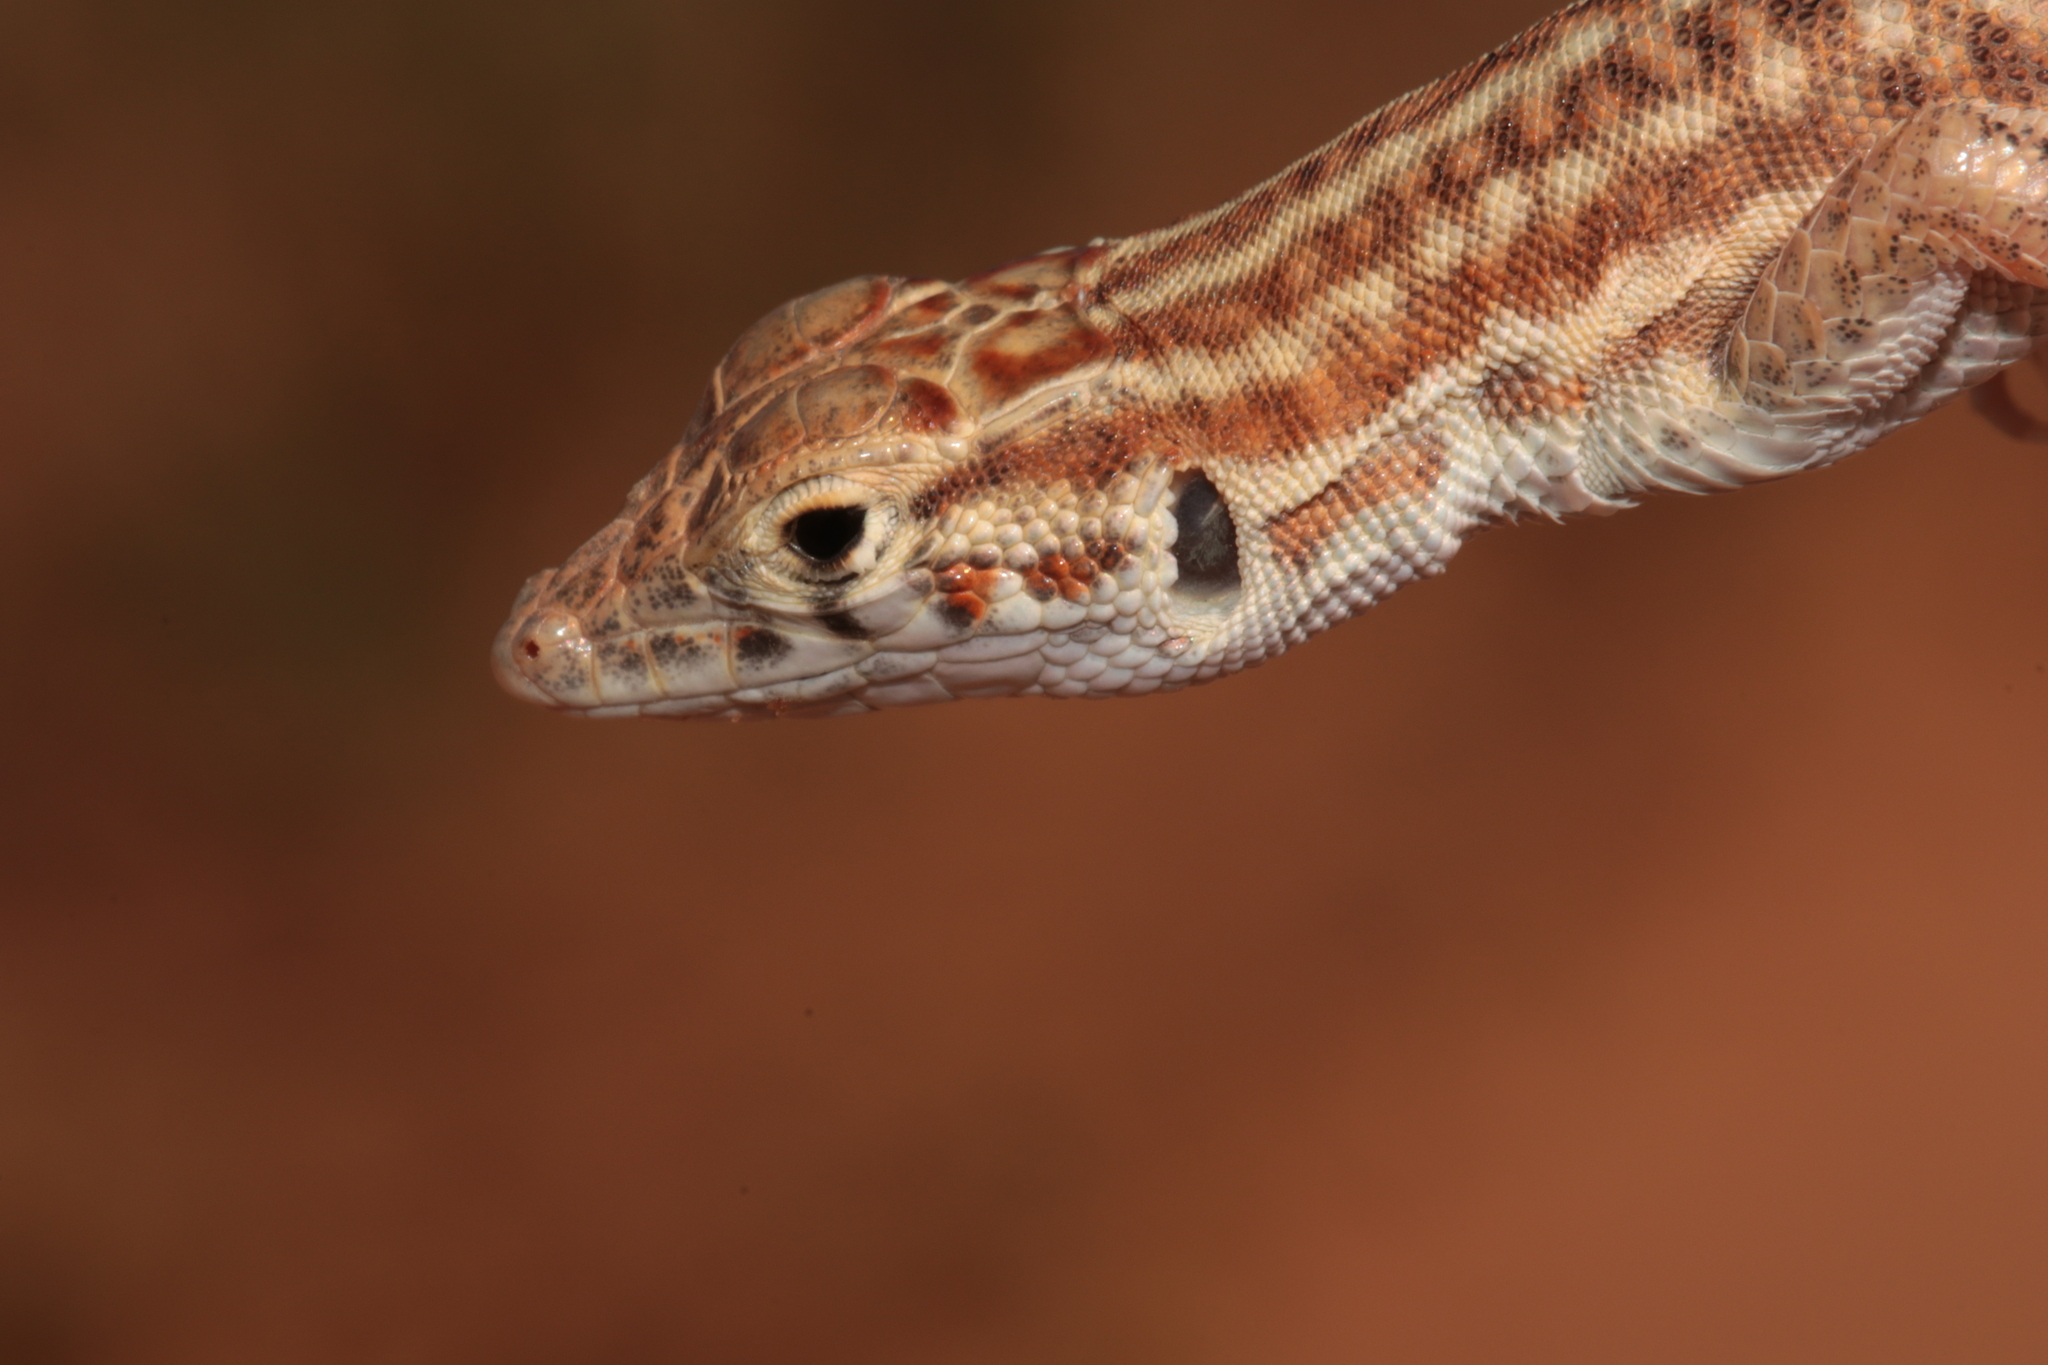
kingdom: Animalia
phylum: Chordata
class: Squamata
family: Lacertidae
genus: Acanthodactylus
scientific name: Acanthodactylus opheodurus
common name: Arnold's fringe-fingered lizard
